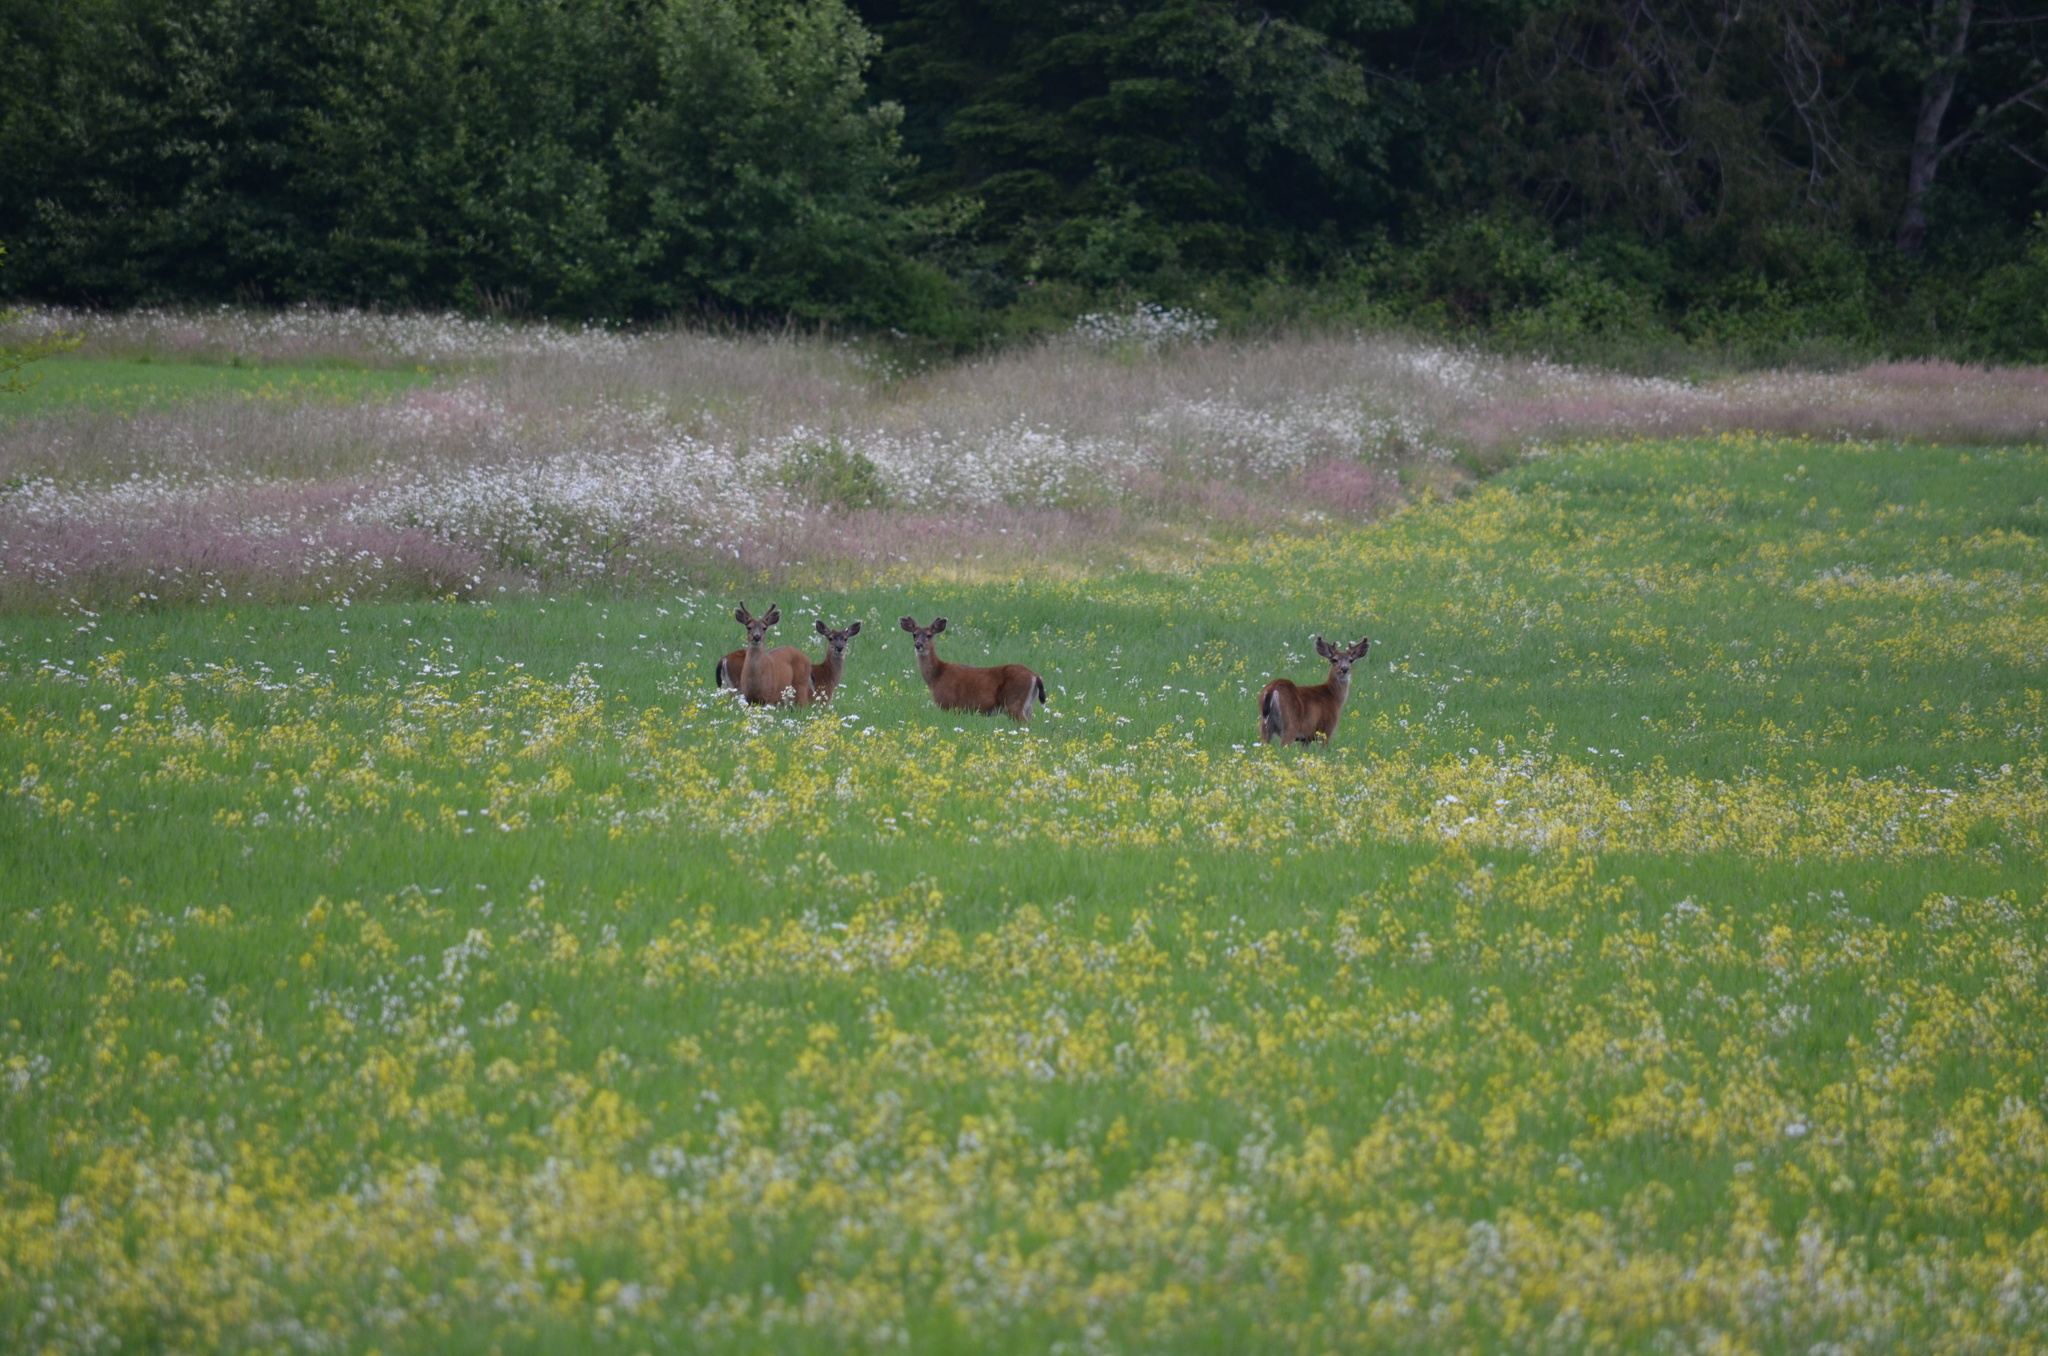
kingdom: Animalia
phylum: Chordata
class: Mammalia
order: Artiodactyla
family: Cervidae
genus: Odocoileus
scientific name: Odocoileus hemionus
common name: Mule deer
